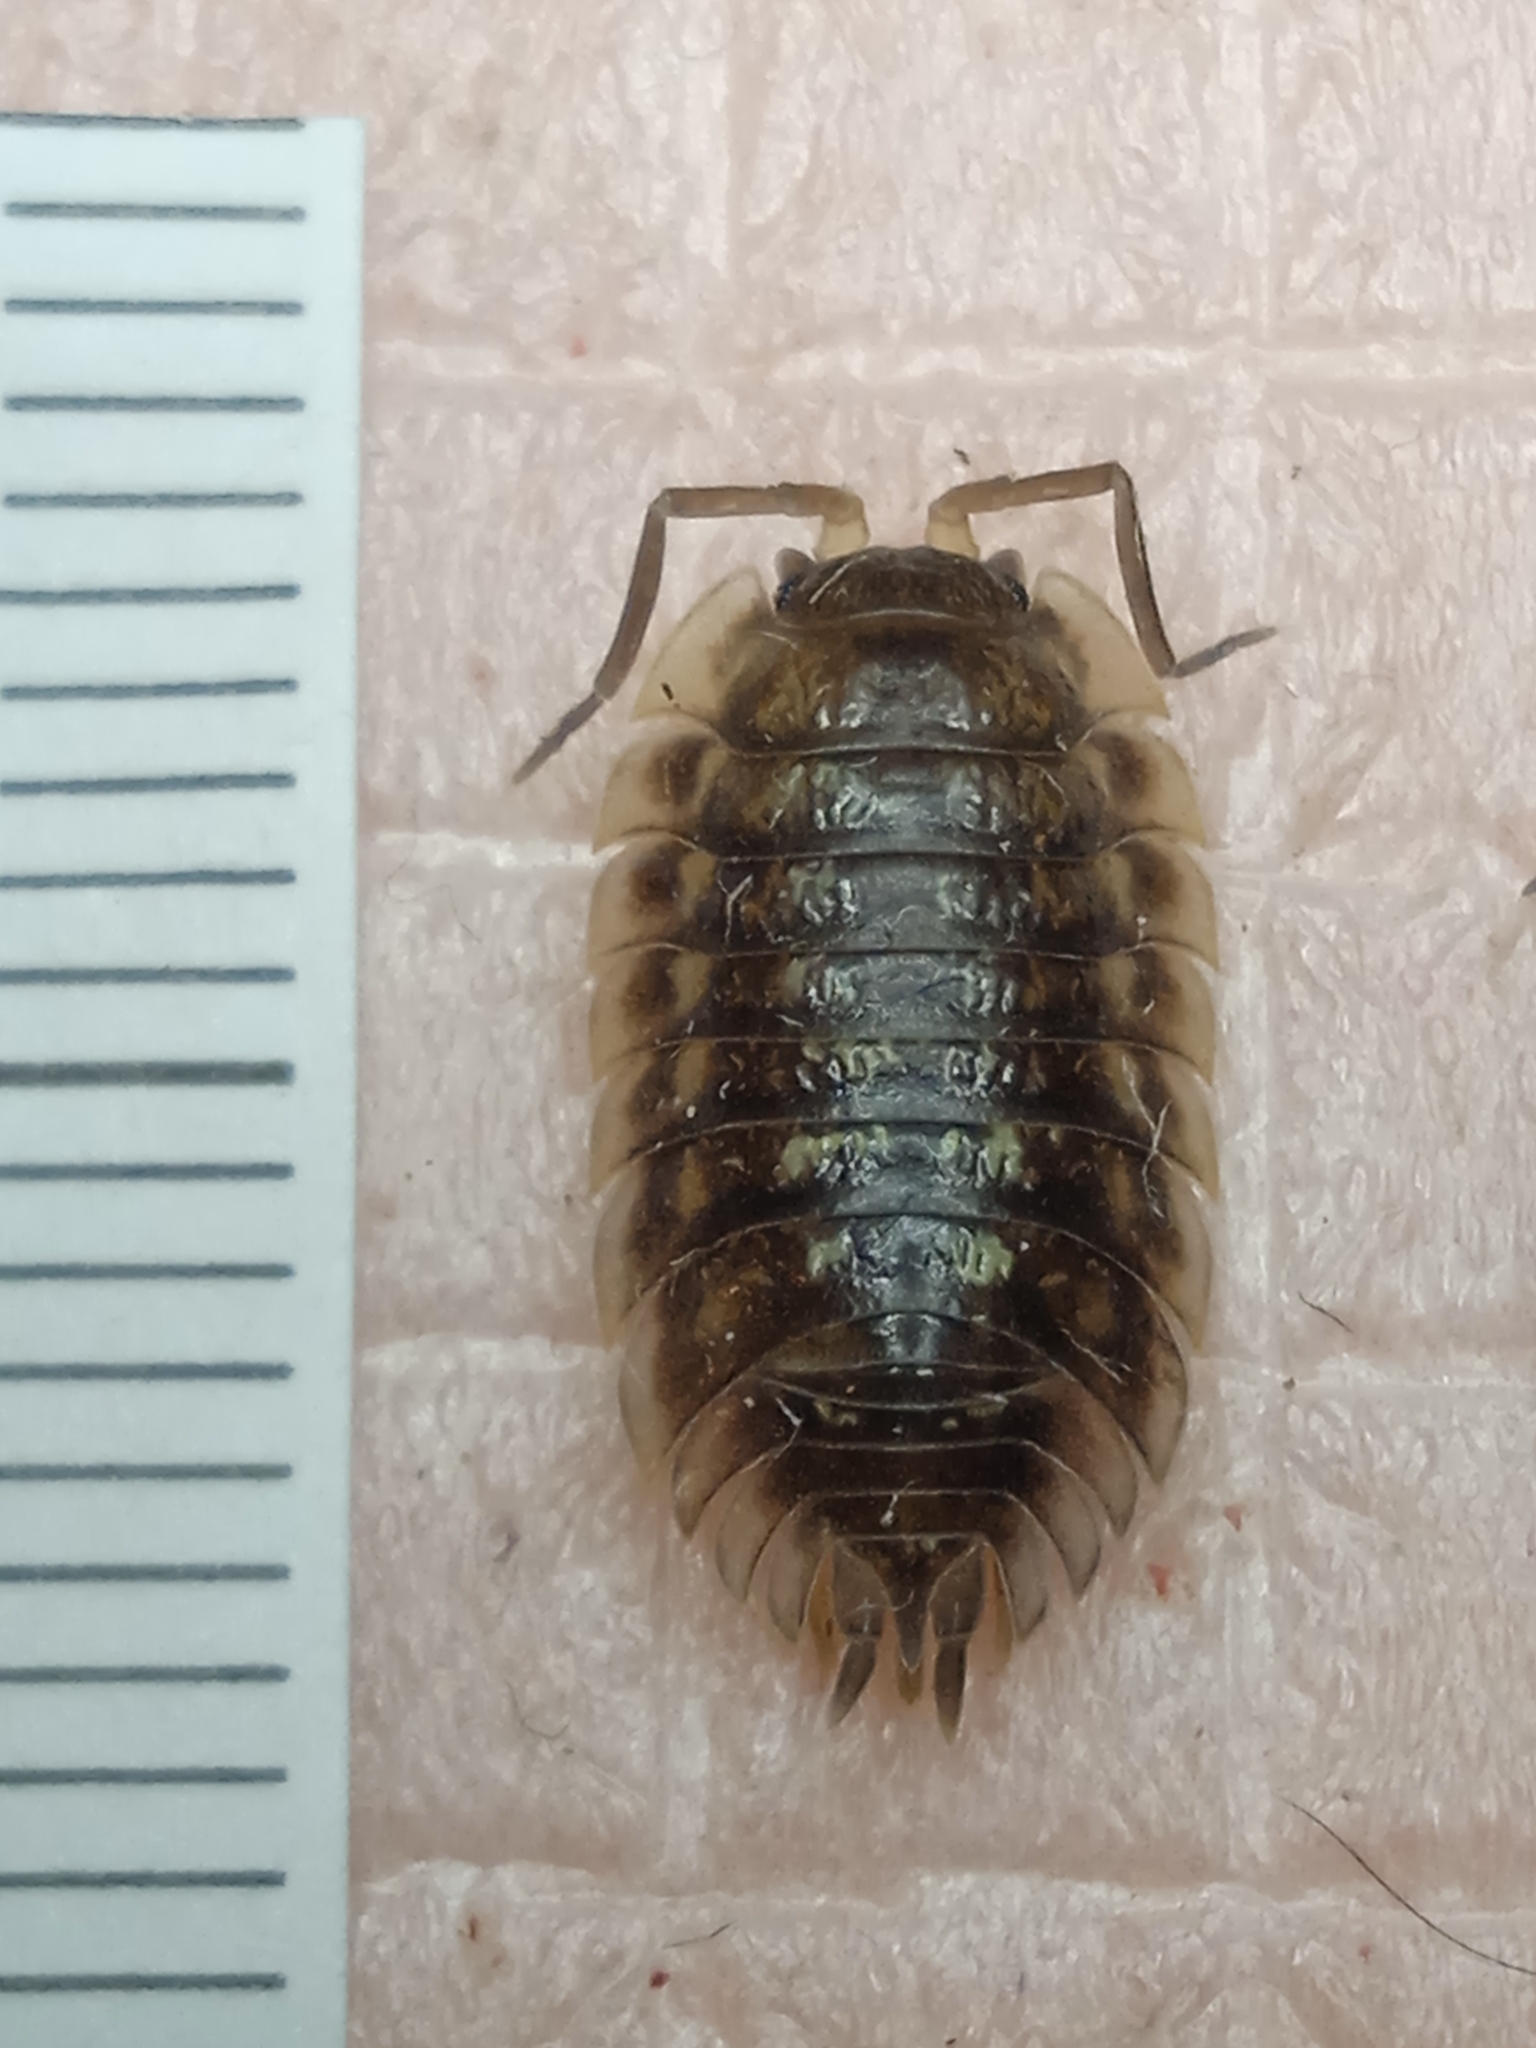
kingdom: Animalia
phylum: Arthropoda
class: Malacostraca
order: Isopoda
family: Oniscidae
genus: Oniscus
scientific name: Oniscus asellus
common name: Common shiny woodlouse
